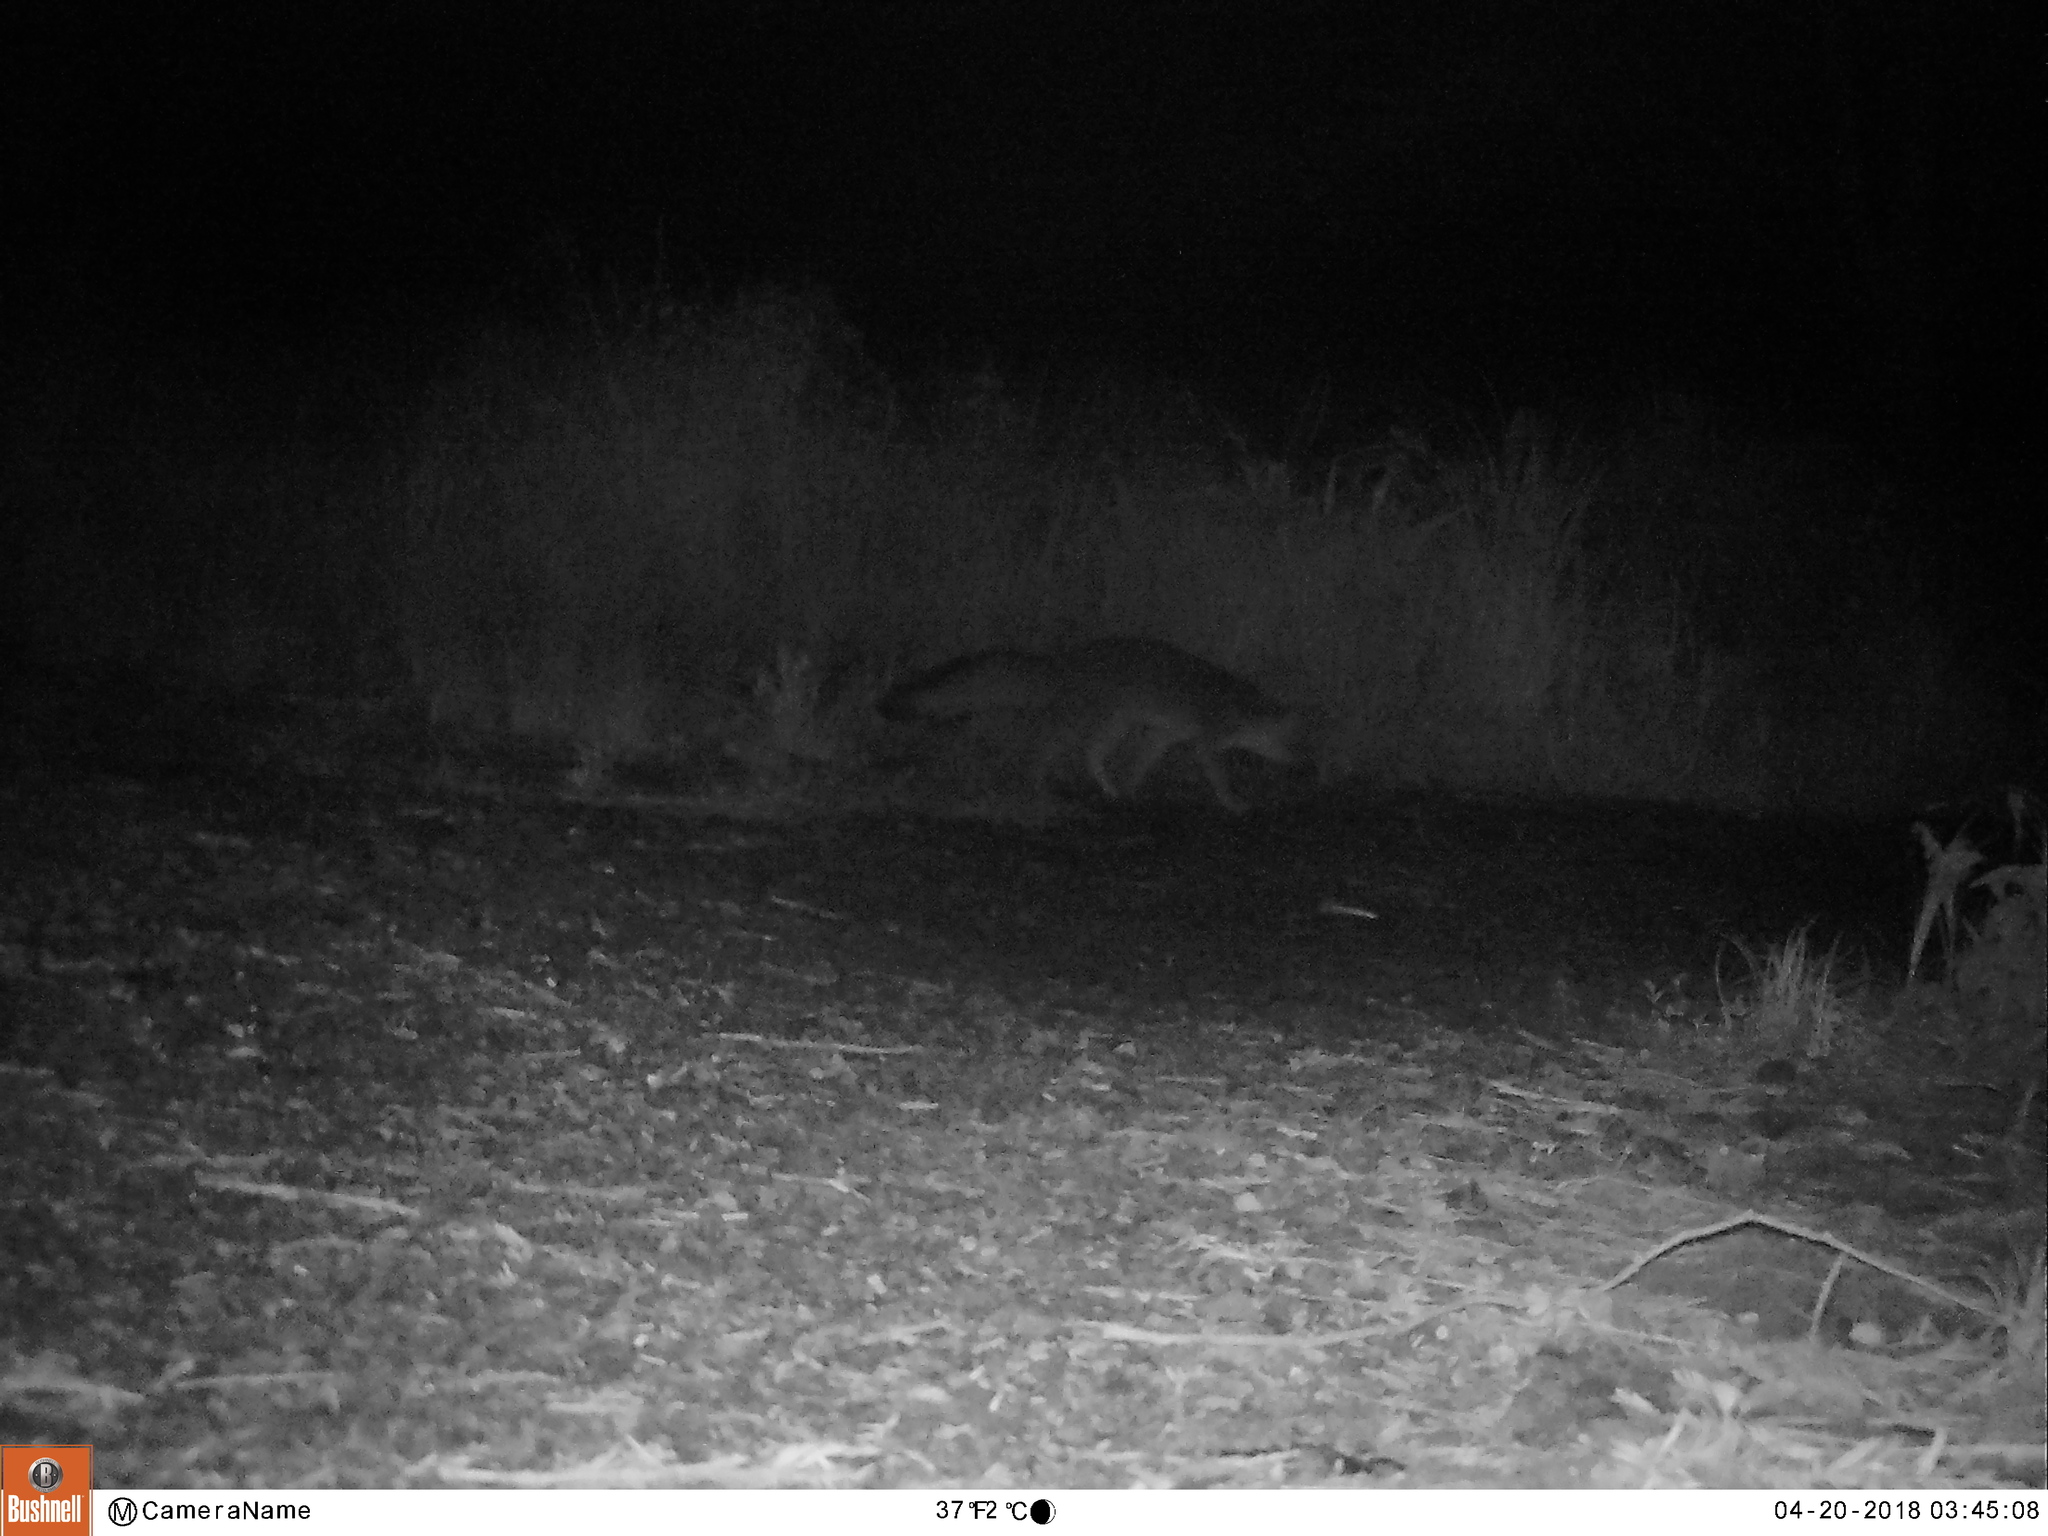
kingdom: Animalia
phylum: Chordata
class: Mammalia
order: Carnivora
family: Canidae
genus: Urocyon
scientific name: Urocyon cinereoargenteus
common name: Gray fox
